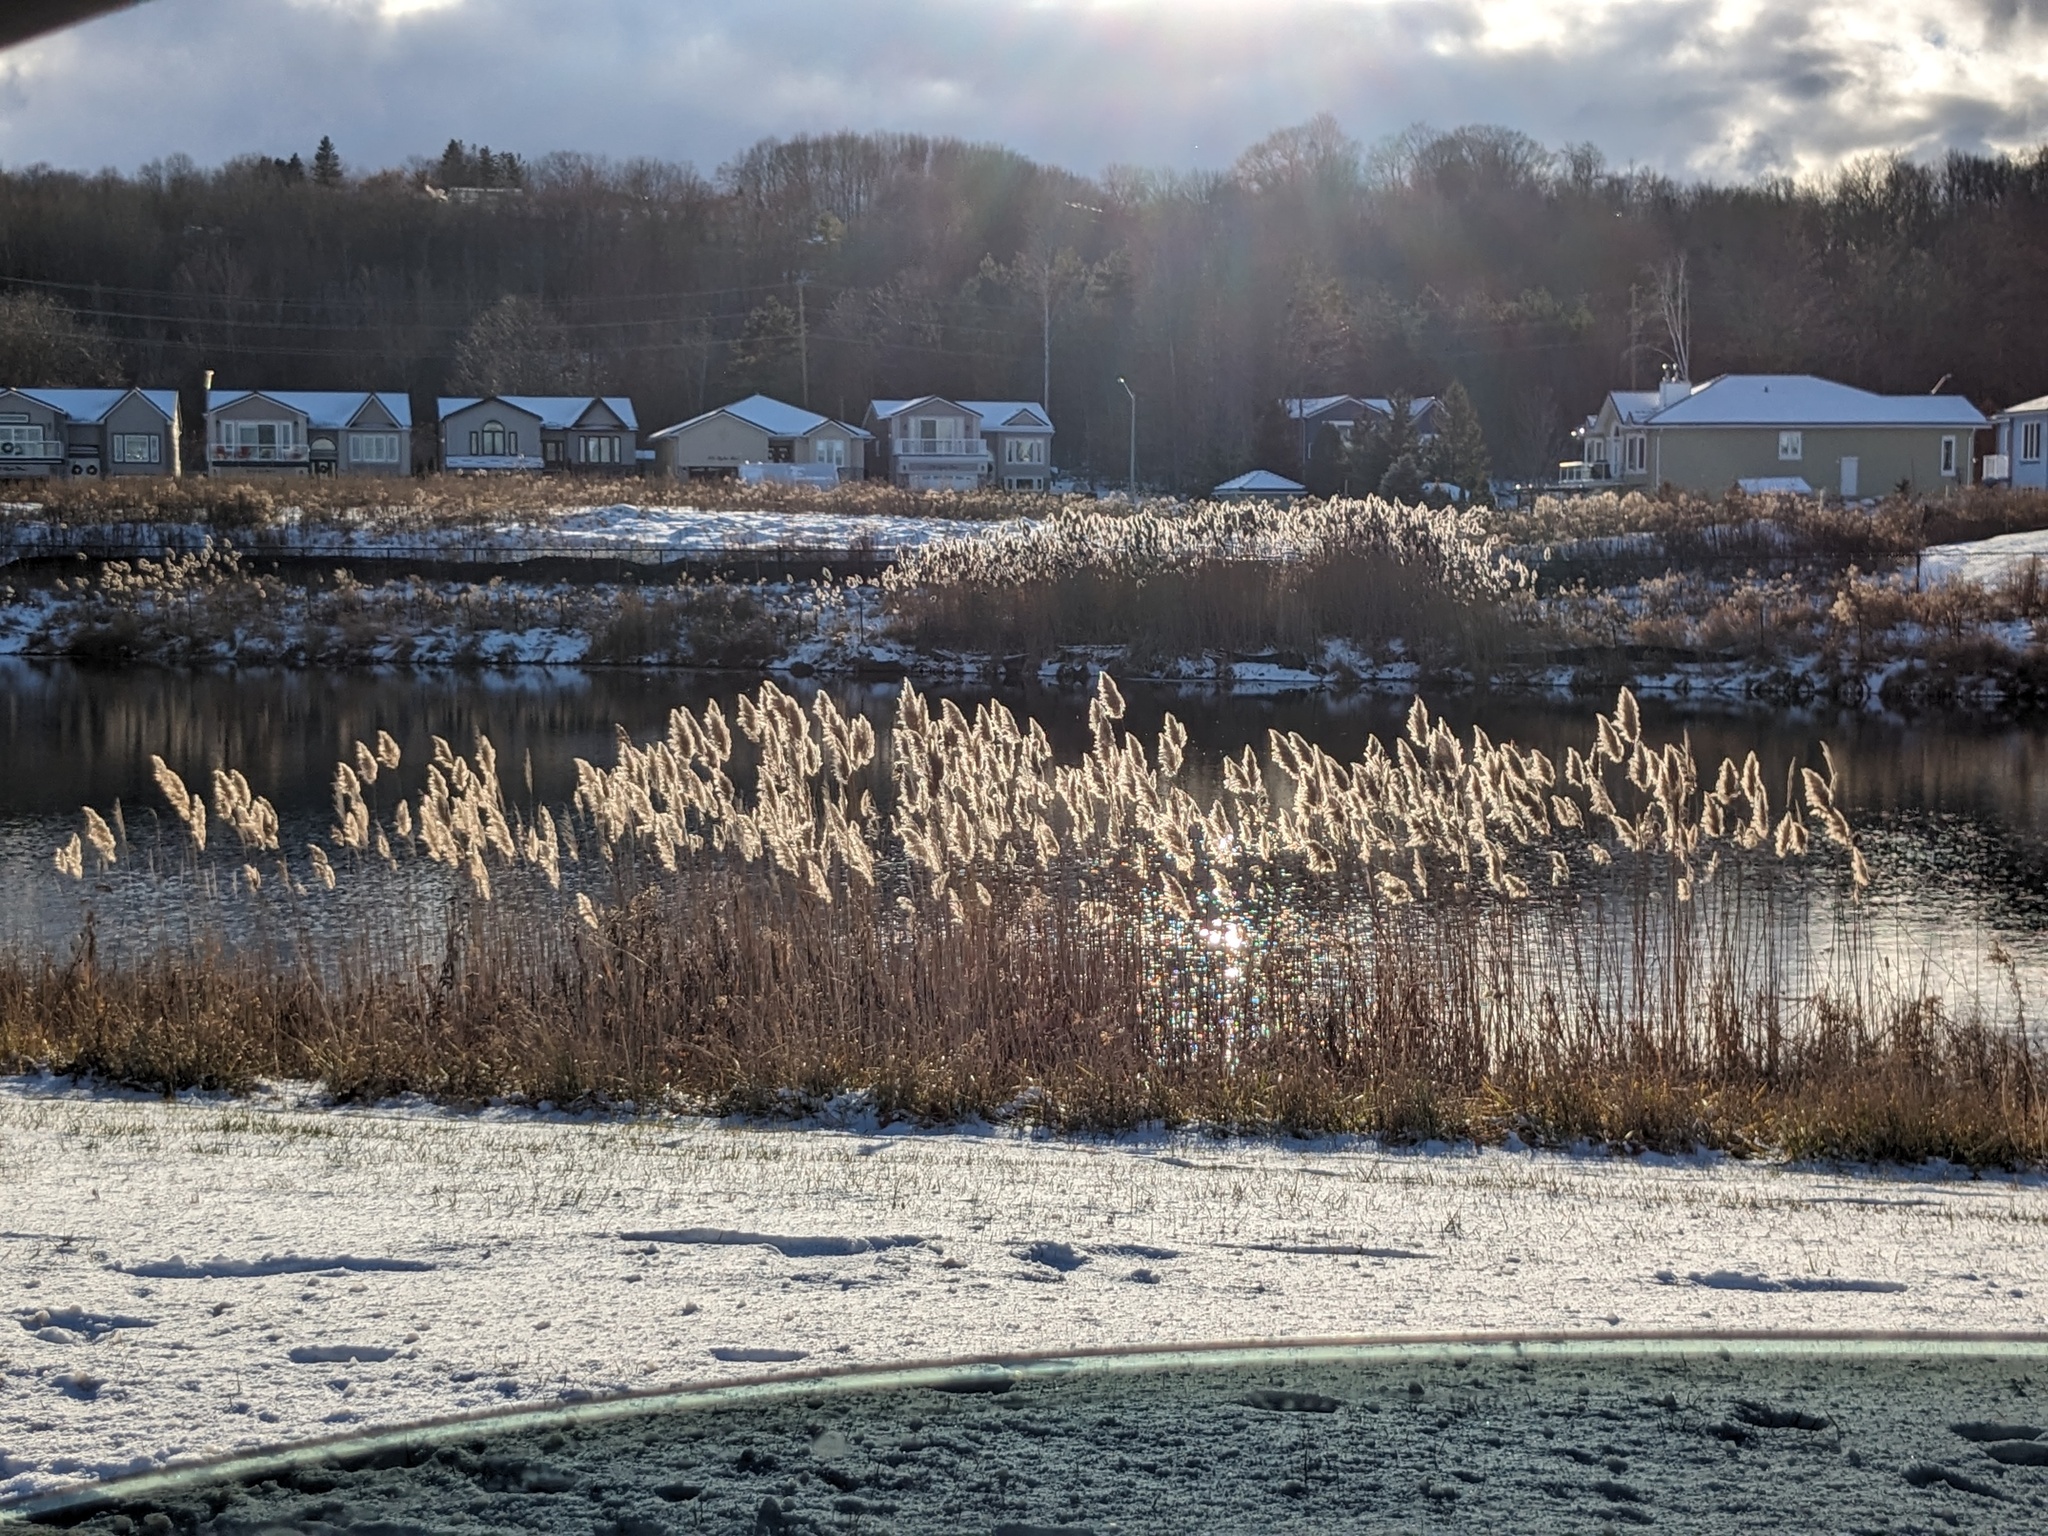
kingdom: Plantae
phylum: Tracheophyta
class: Liliopsida
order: Poales
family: Poaceae
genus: Phragmites
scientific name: Phragmites australis
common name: Common reed
